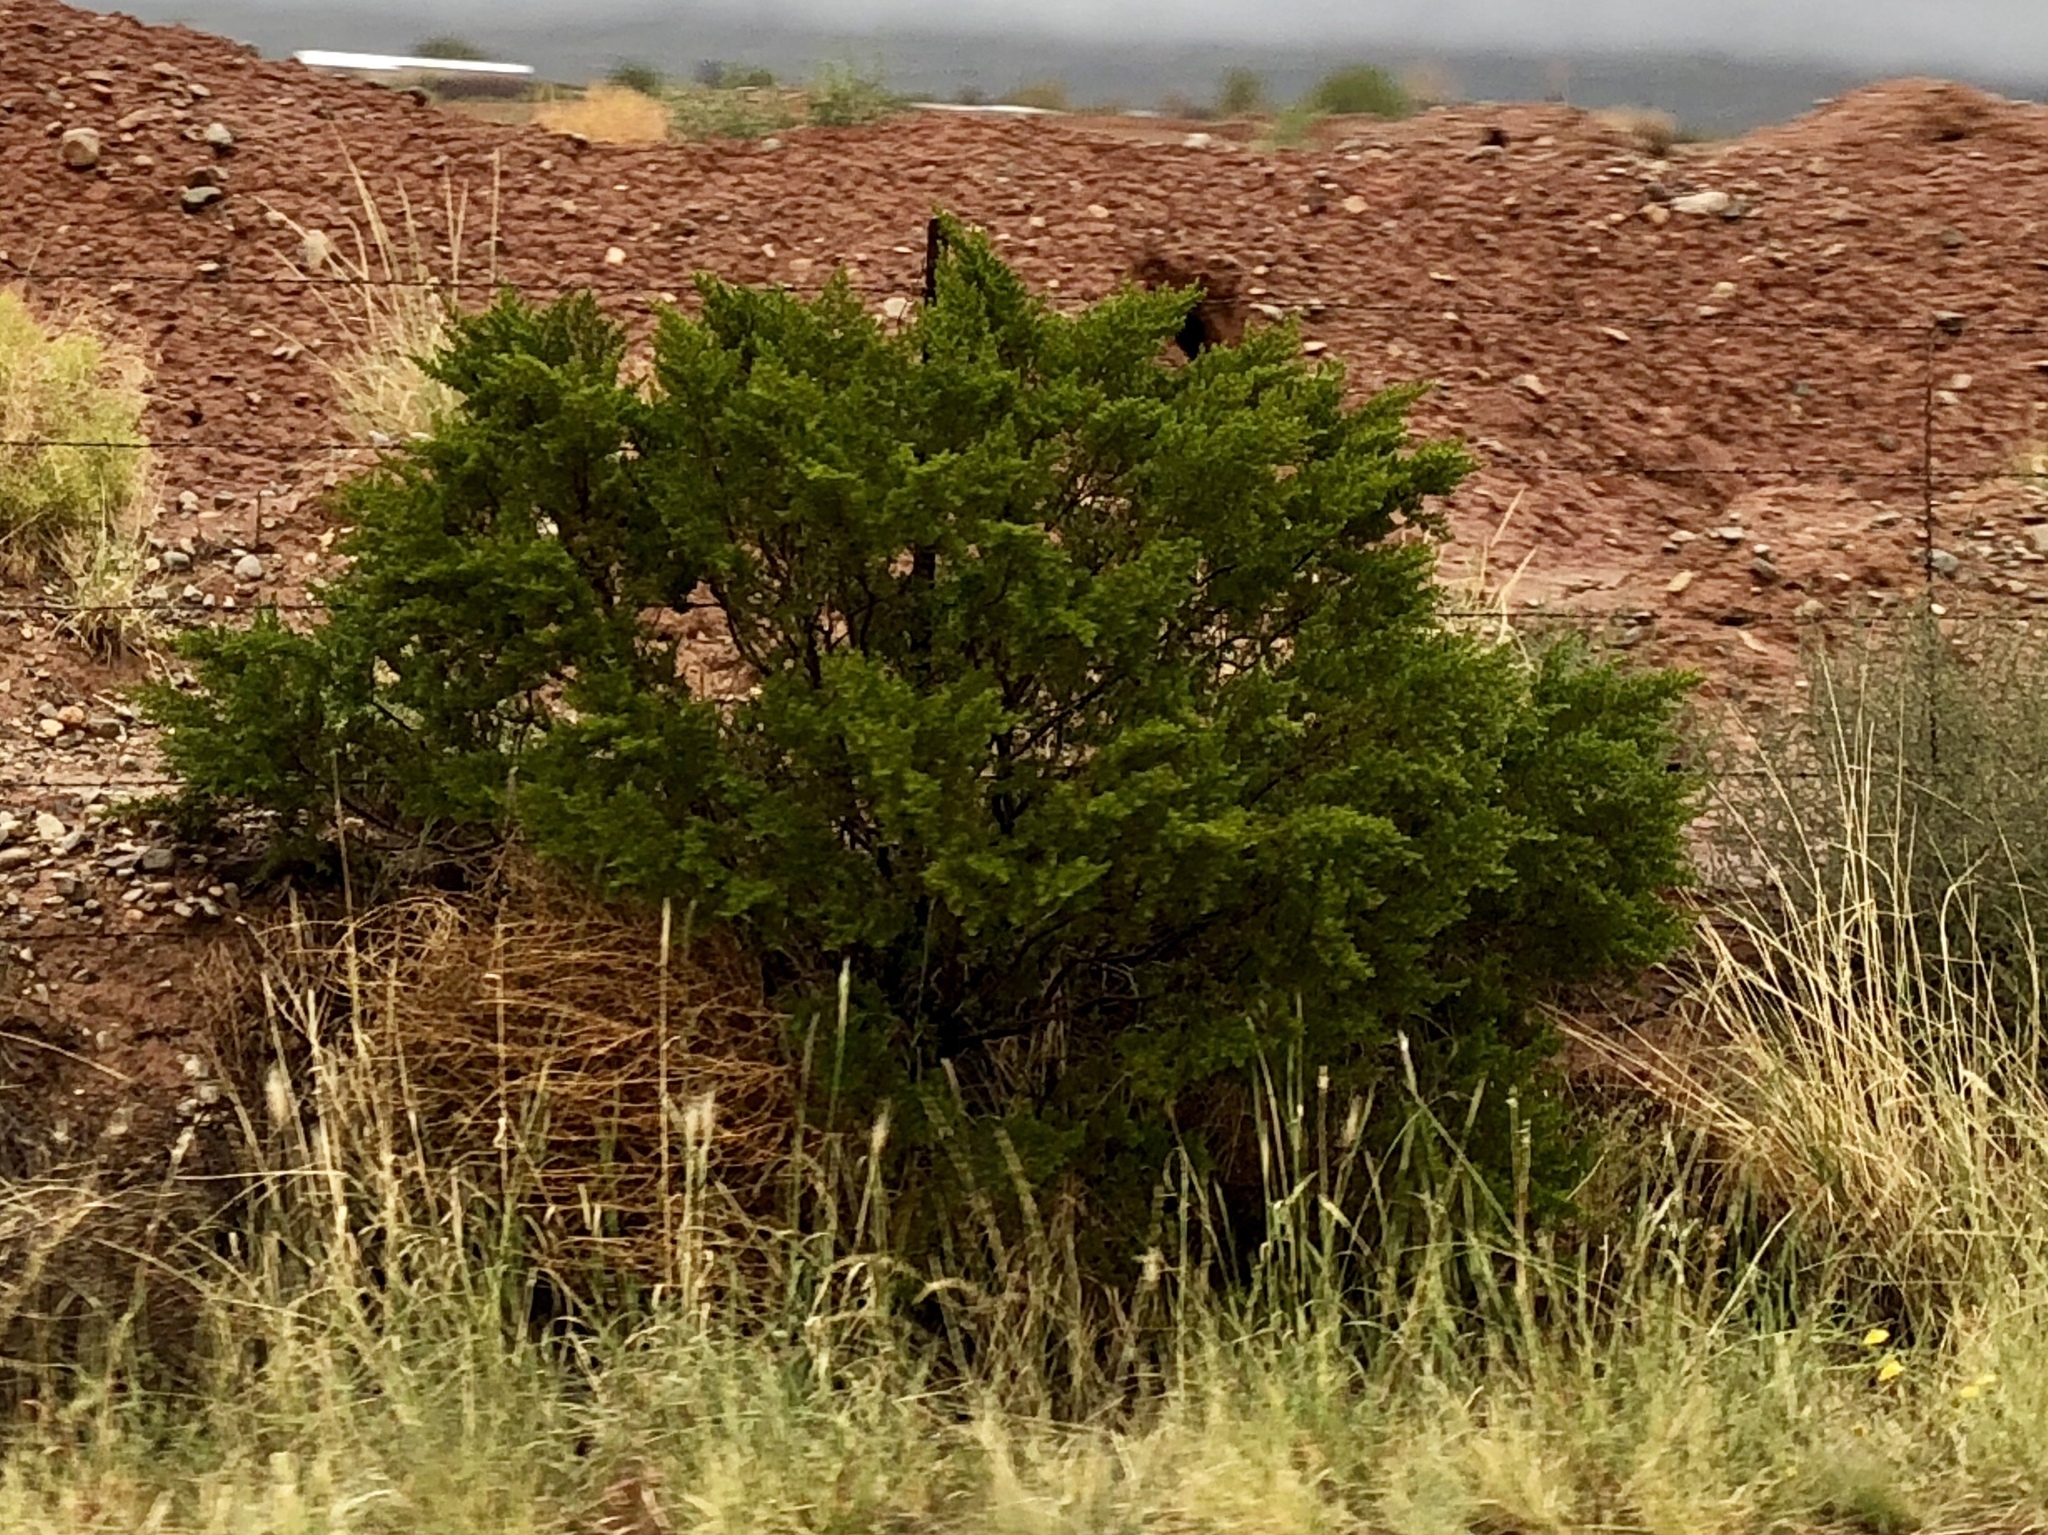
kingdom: Plantae
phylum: Tracheophyta
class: Magnoliopsida
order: Zygophyllales
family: Zygophyllaceae
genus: Larrea
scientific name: Larrea tridentata
